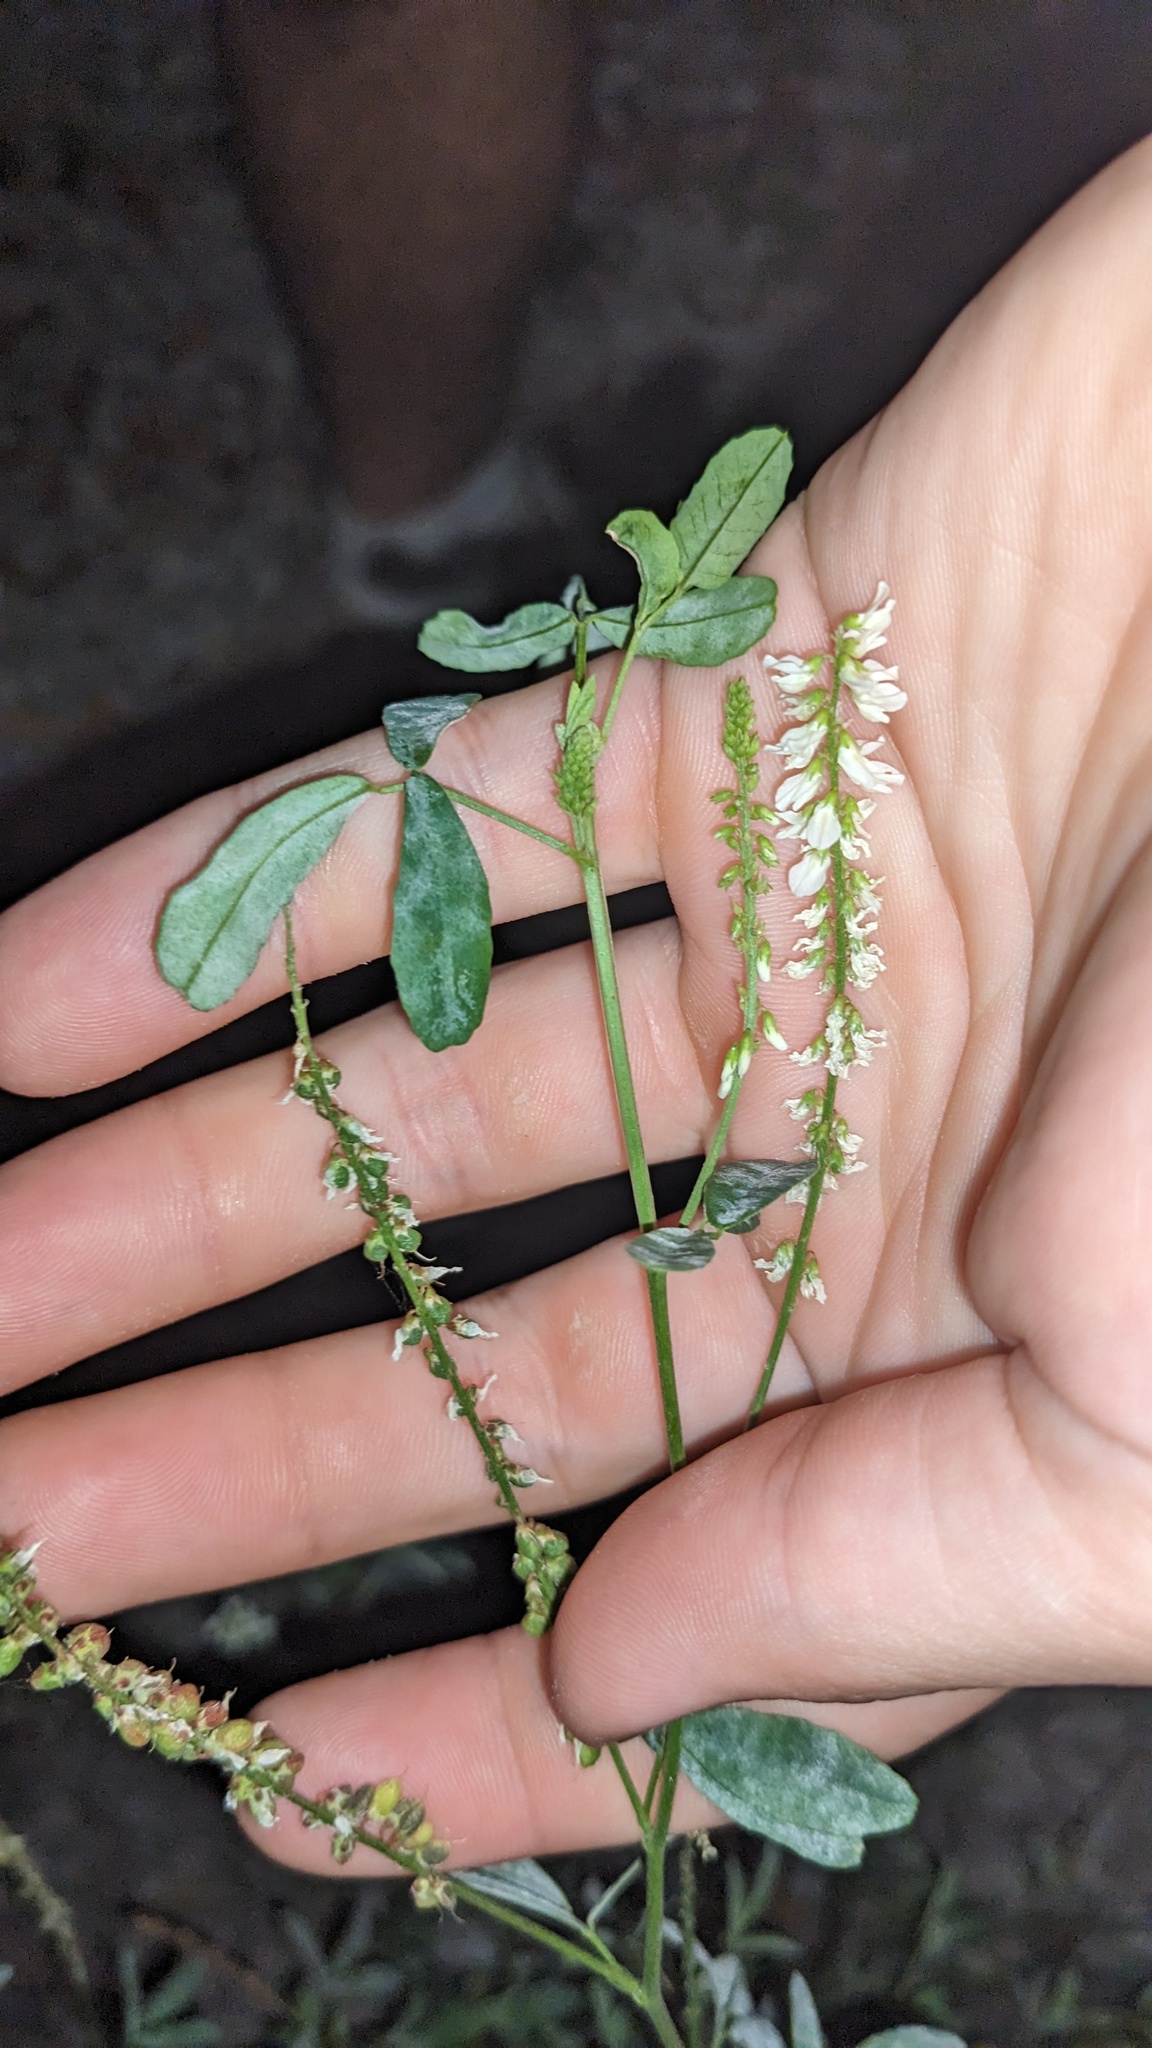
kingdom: Plantae
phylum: Tracheophyta
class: Magnoliopsida
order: Fabales
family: Fabaceae
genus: Melilotus
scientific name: Melilotus albus
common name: White melilot
